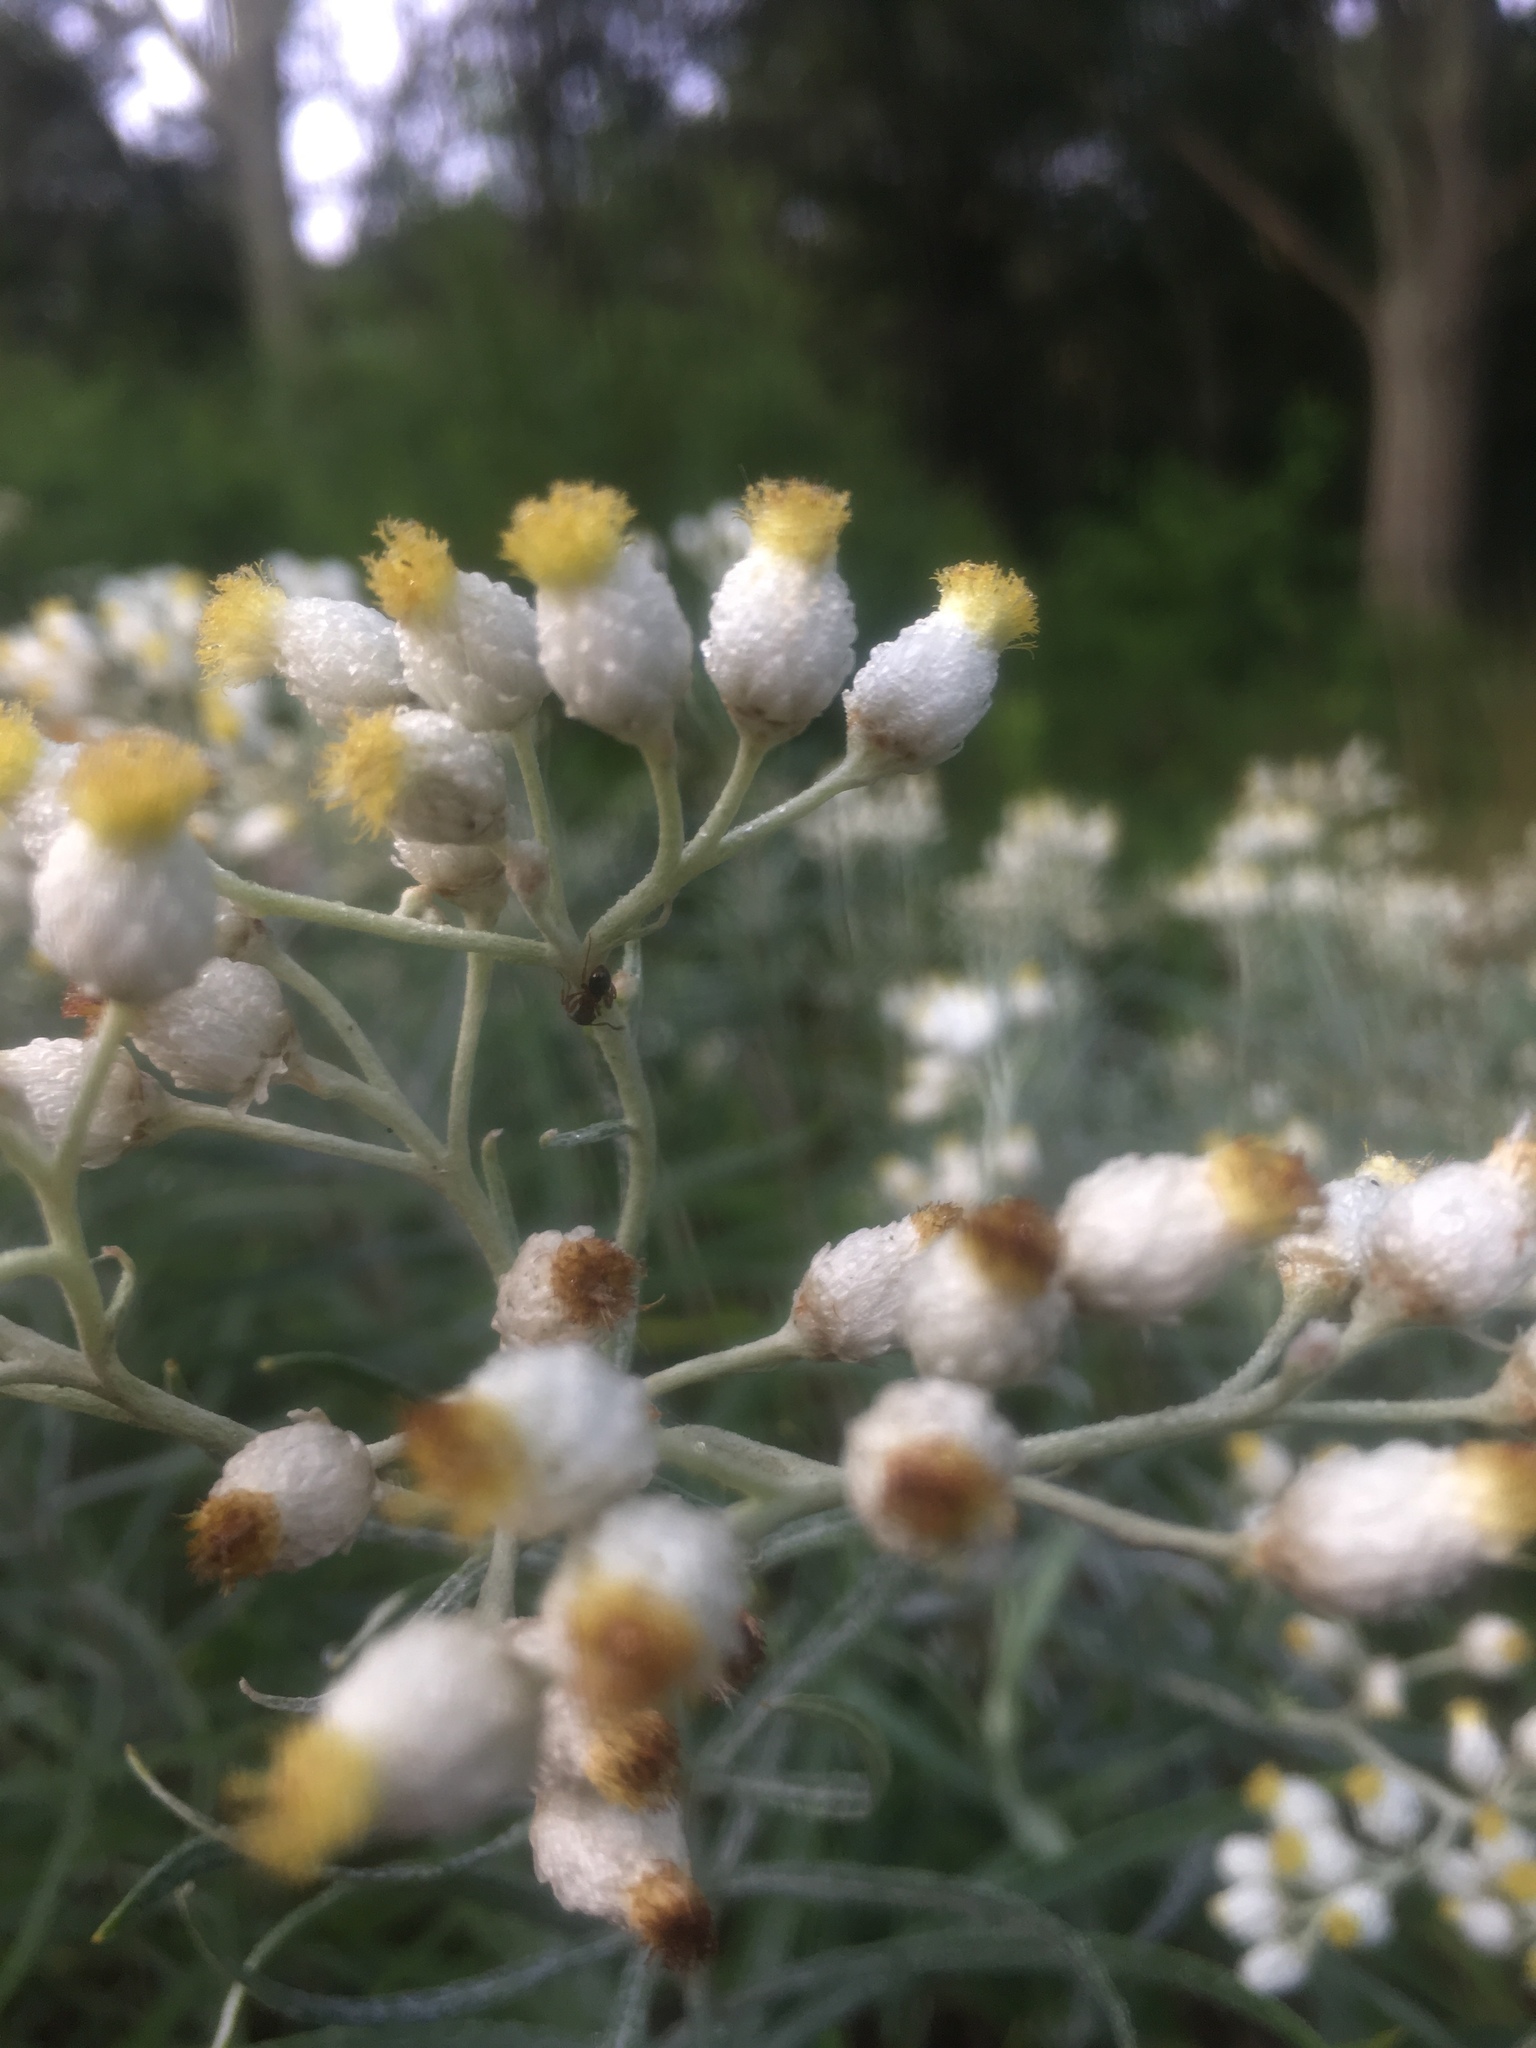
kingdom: Plantae
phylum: Tracheophyta
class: Magnoliopsida
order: Asterales
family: Asteraceae
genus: Anaphalis
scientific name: Anaphalis margaritacea
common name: Pearly everlasting
